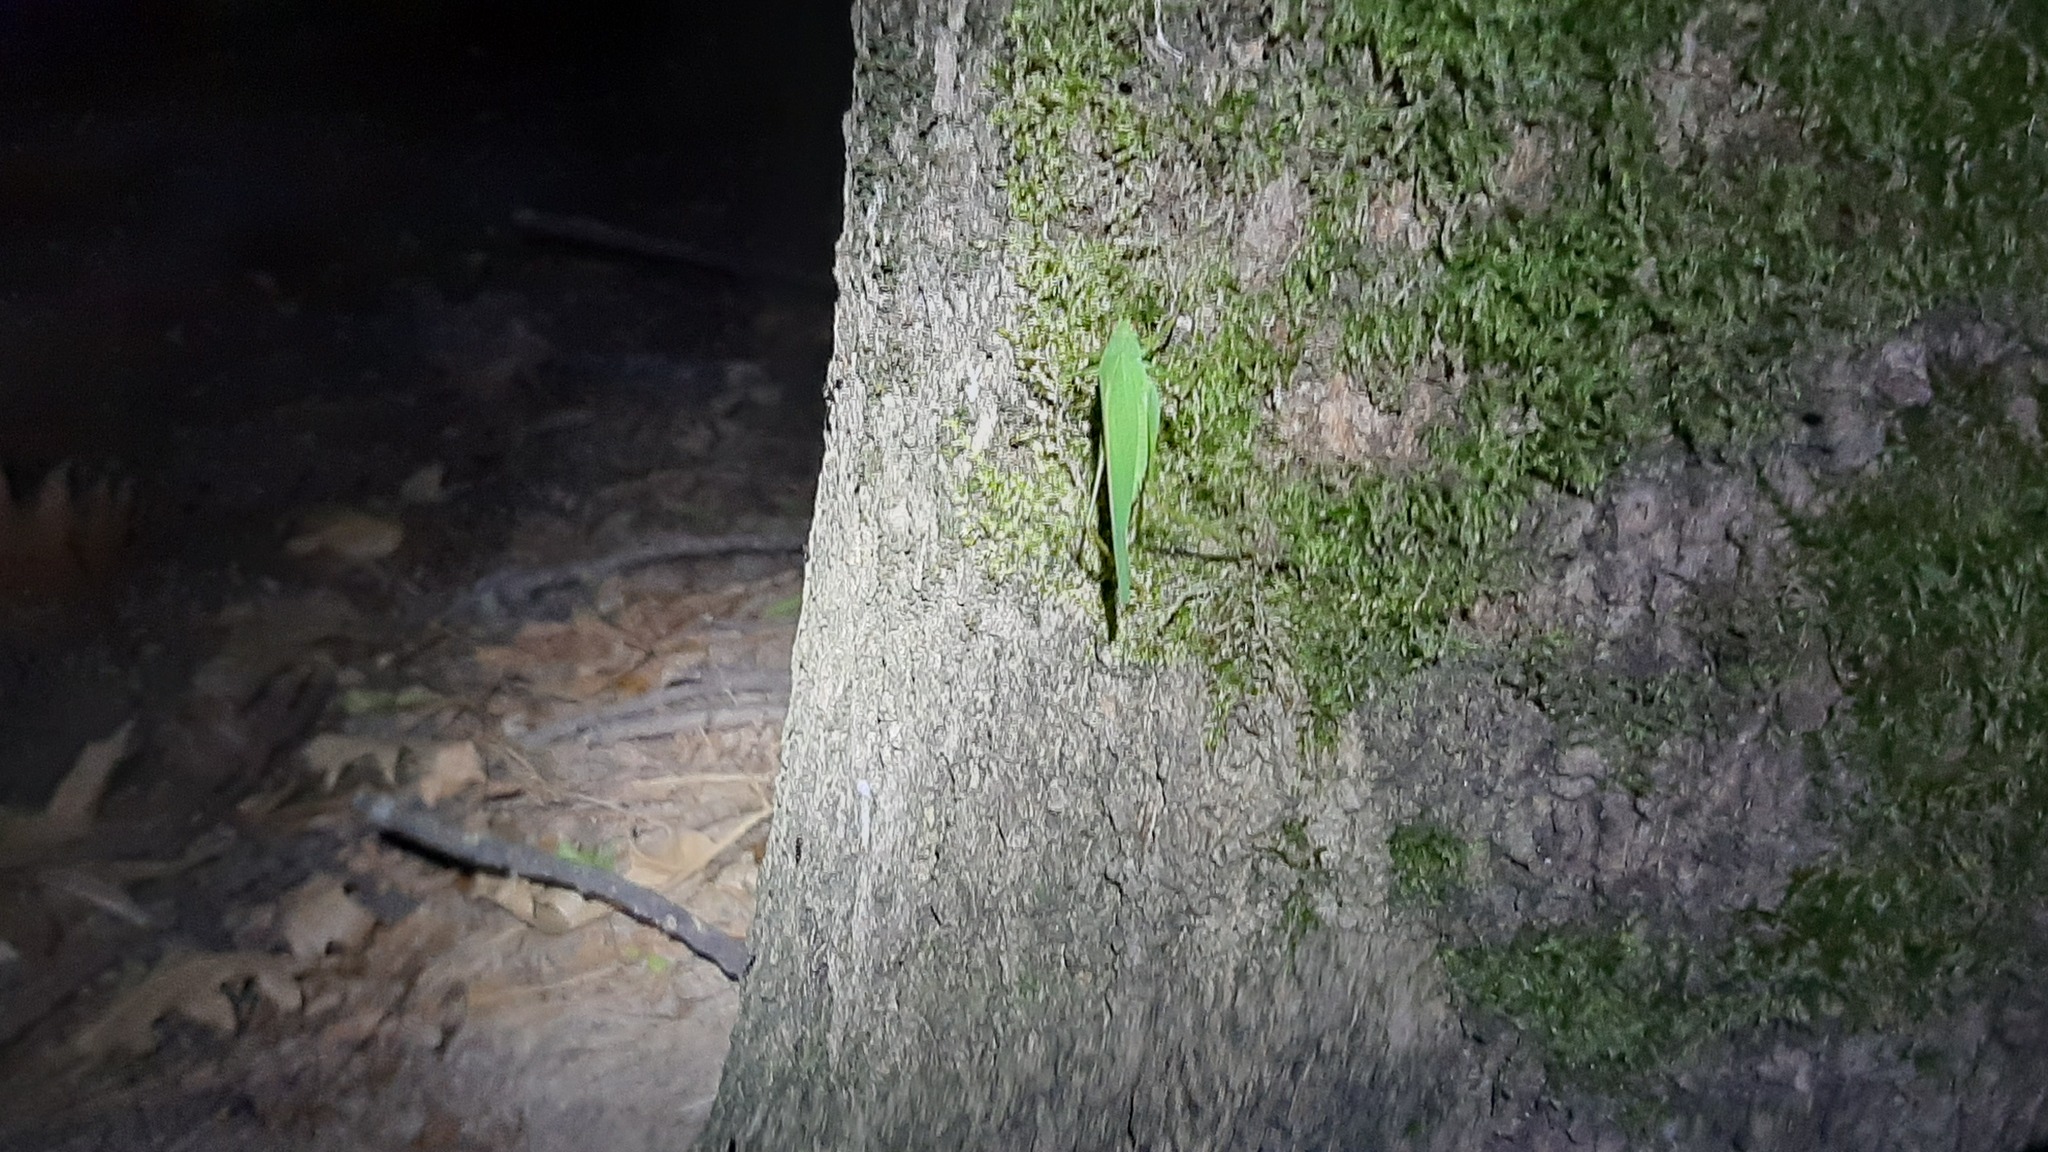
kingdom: Animalia
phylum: Arthropoda
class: Insecta
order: Orthoptera
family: Tettigoniidae
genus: Phaneroptera
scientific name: Phaneroptera nana
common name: Southern sickle bush-cricket
